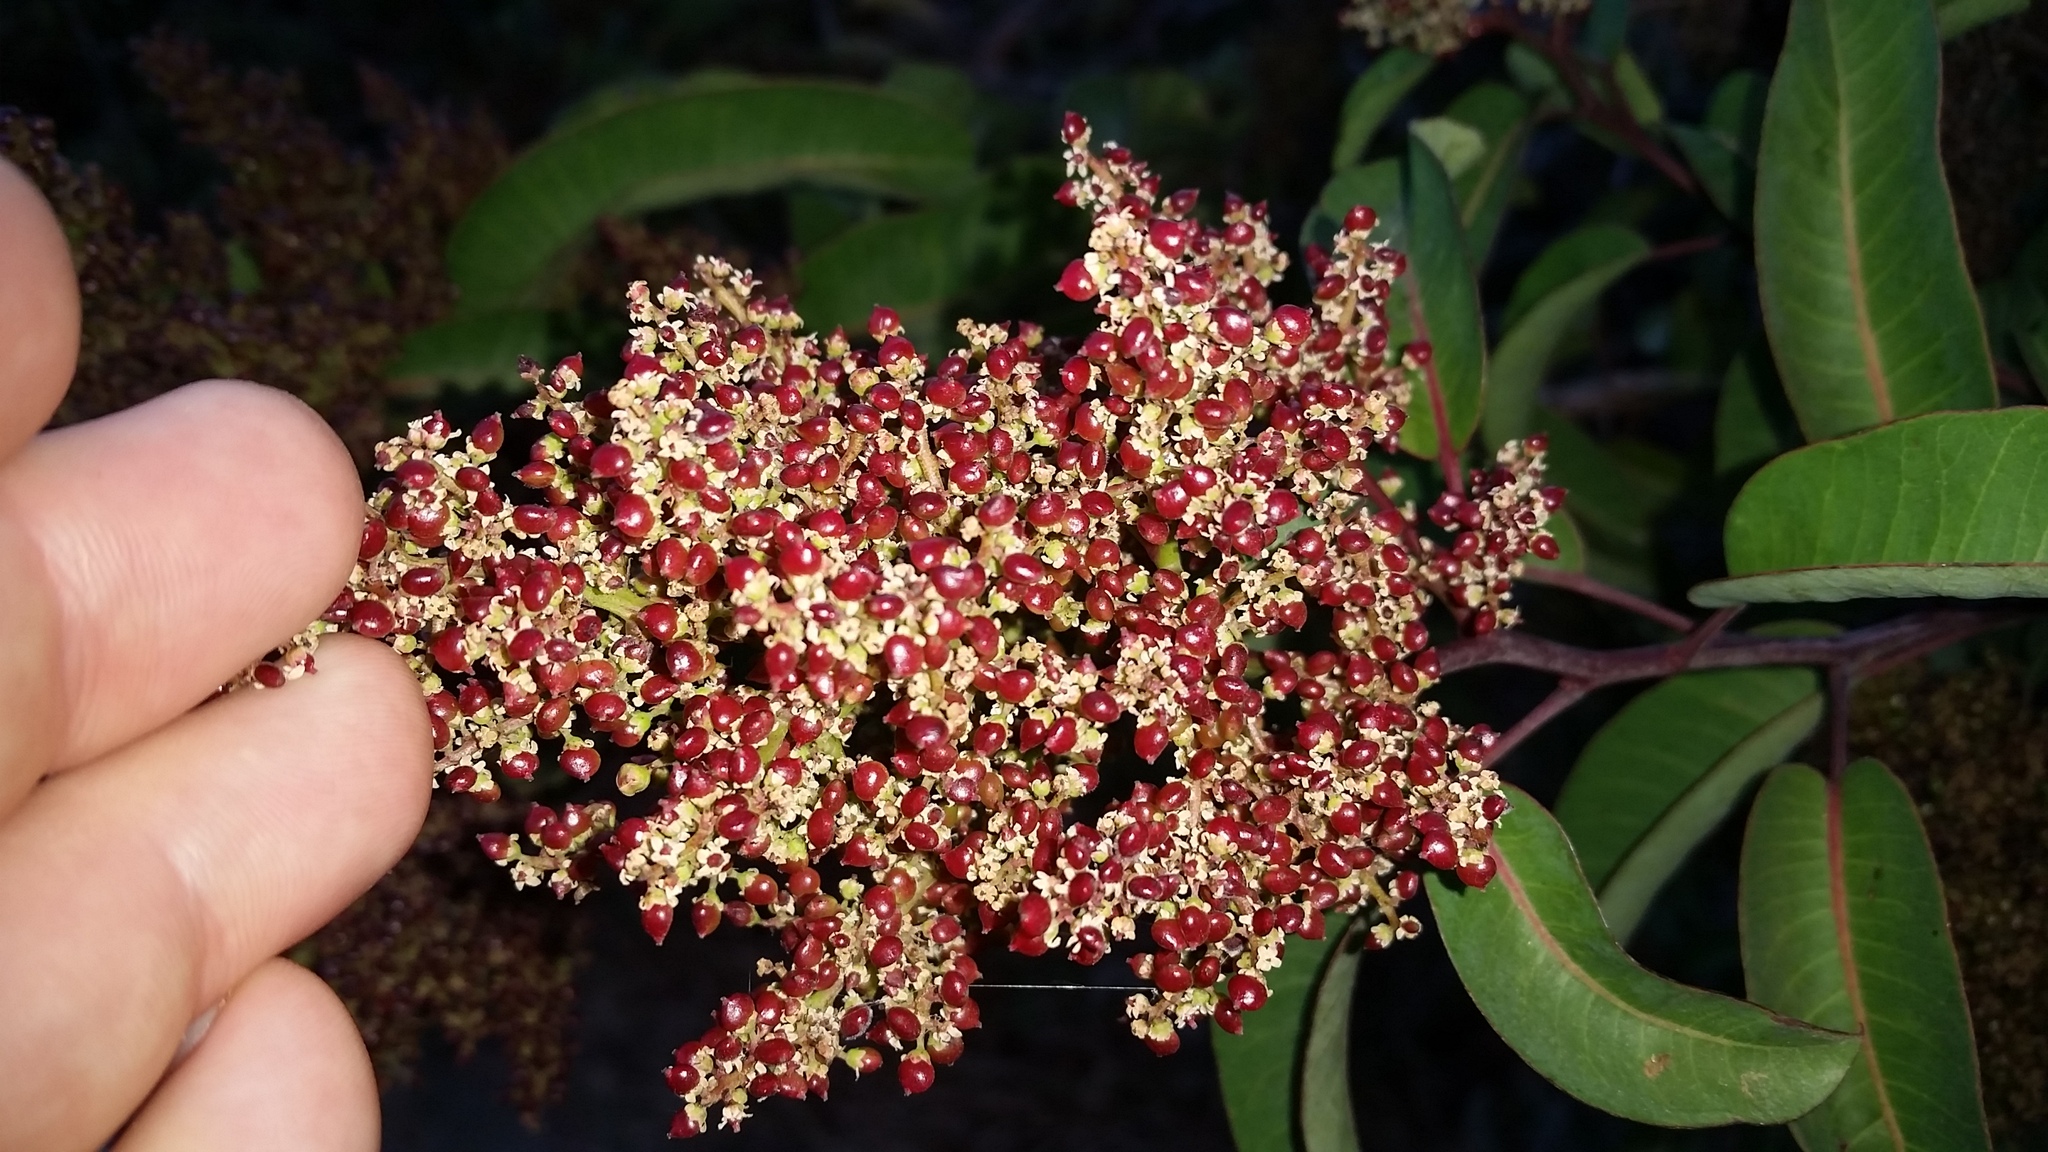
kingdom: Plantae
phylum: Tracheophyta
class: Magnoliopsida
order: Sapindales
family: Anacardiaceae
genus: Malosma
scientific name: Malosma laurina
